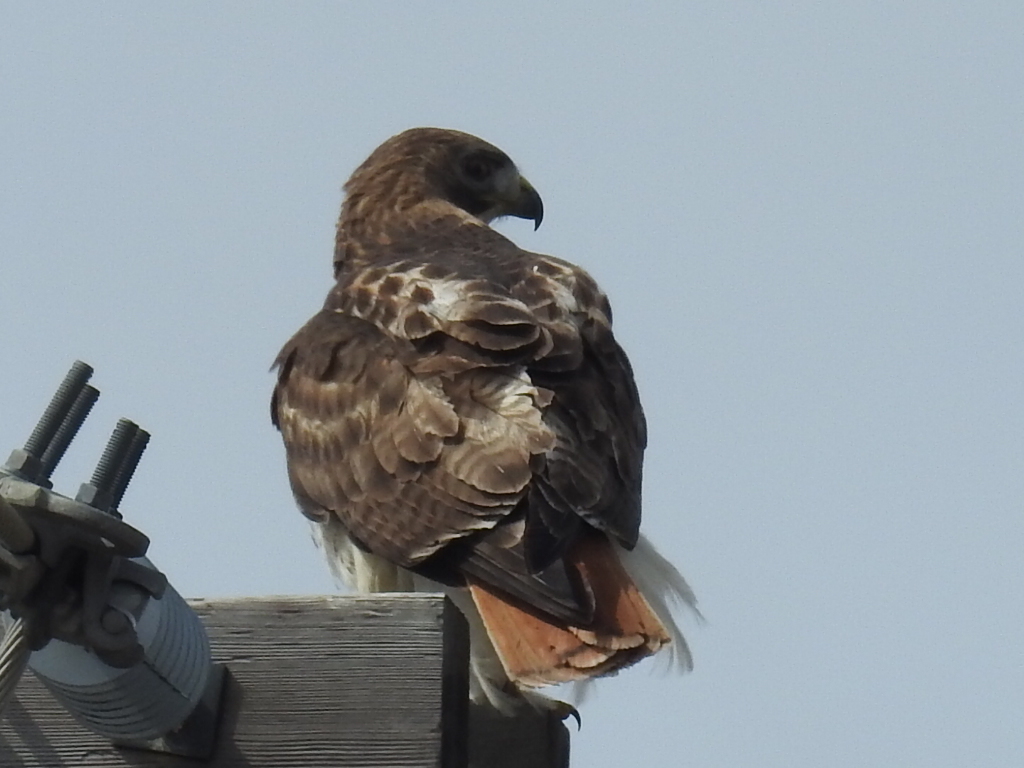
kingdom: Animalia
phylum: Chordata
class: Aves
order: Accipitriformes
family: Accipitridae
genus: Buteo
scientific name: Buteo jamaicensis
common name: Red-tailed hawk
